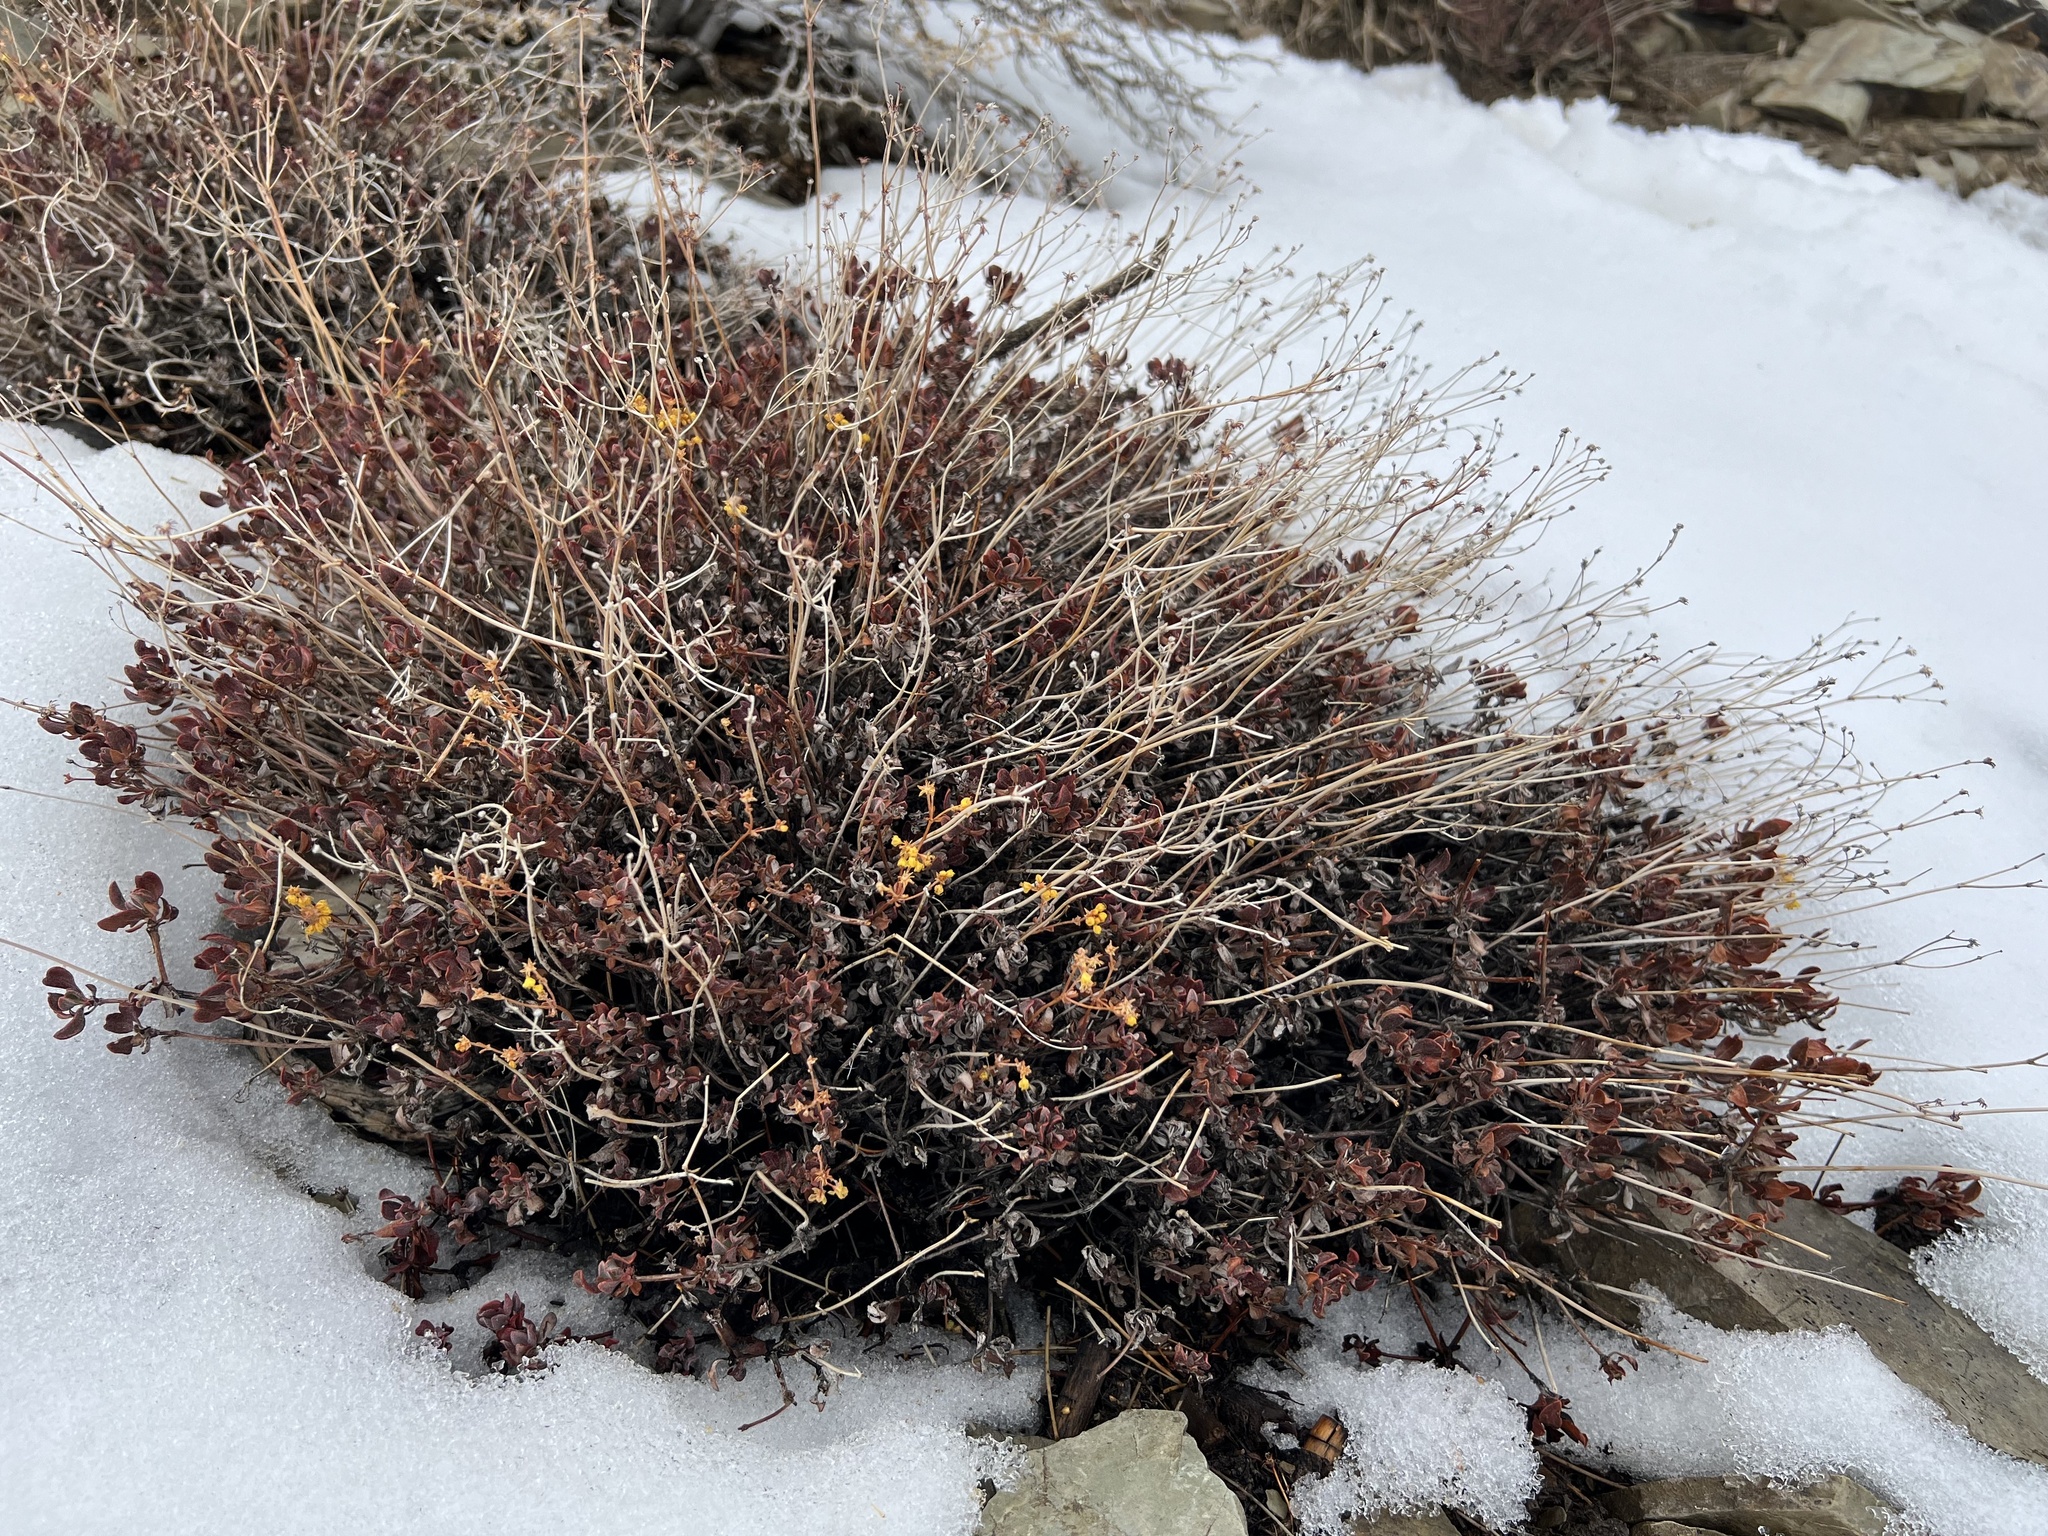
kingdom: Plantae
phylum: Tracheophyta
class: Magnoliopsida
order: Caryophyllales
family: Polygonaceae
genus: Eriogonum
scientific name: Eriogonum umbellatum
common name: Sulfur-buckwheat
